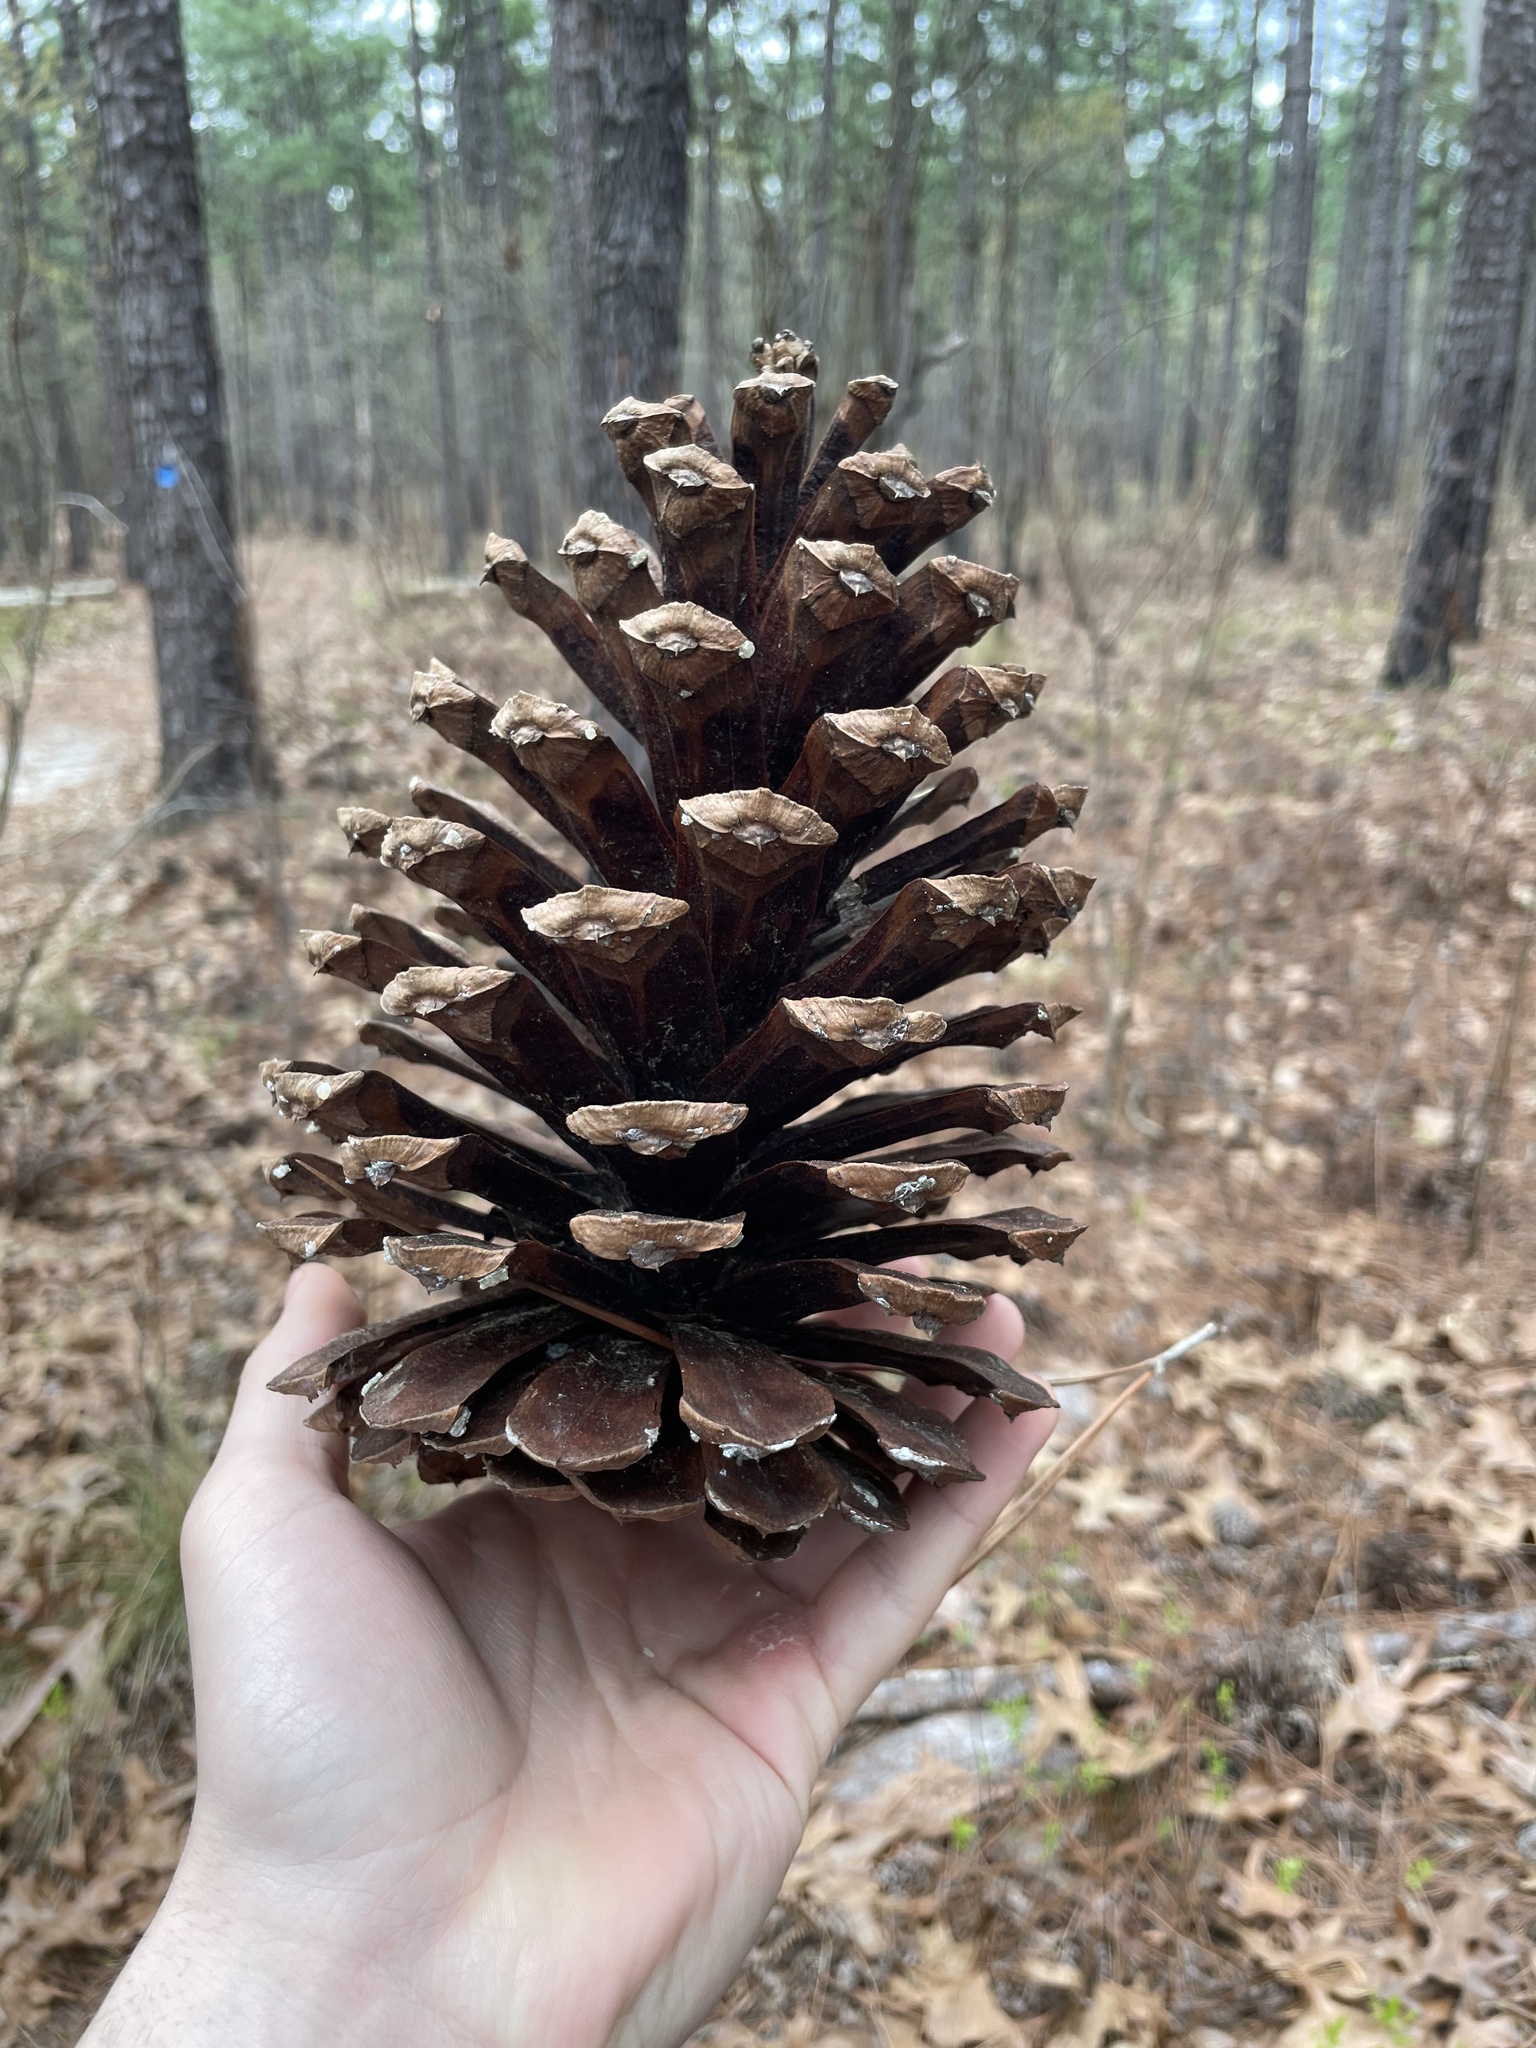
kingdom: Plantae
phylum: Tracheophyta
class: Pinopsida
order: Pinales
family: Pinaceae
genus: Pinus
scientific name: Pinus palustris
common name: Longleaf pine
